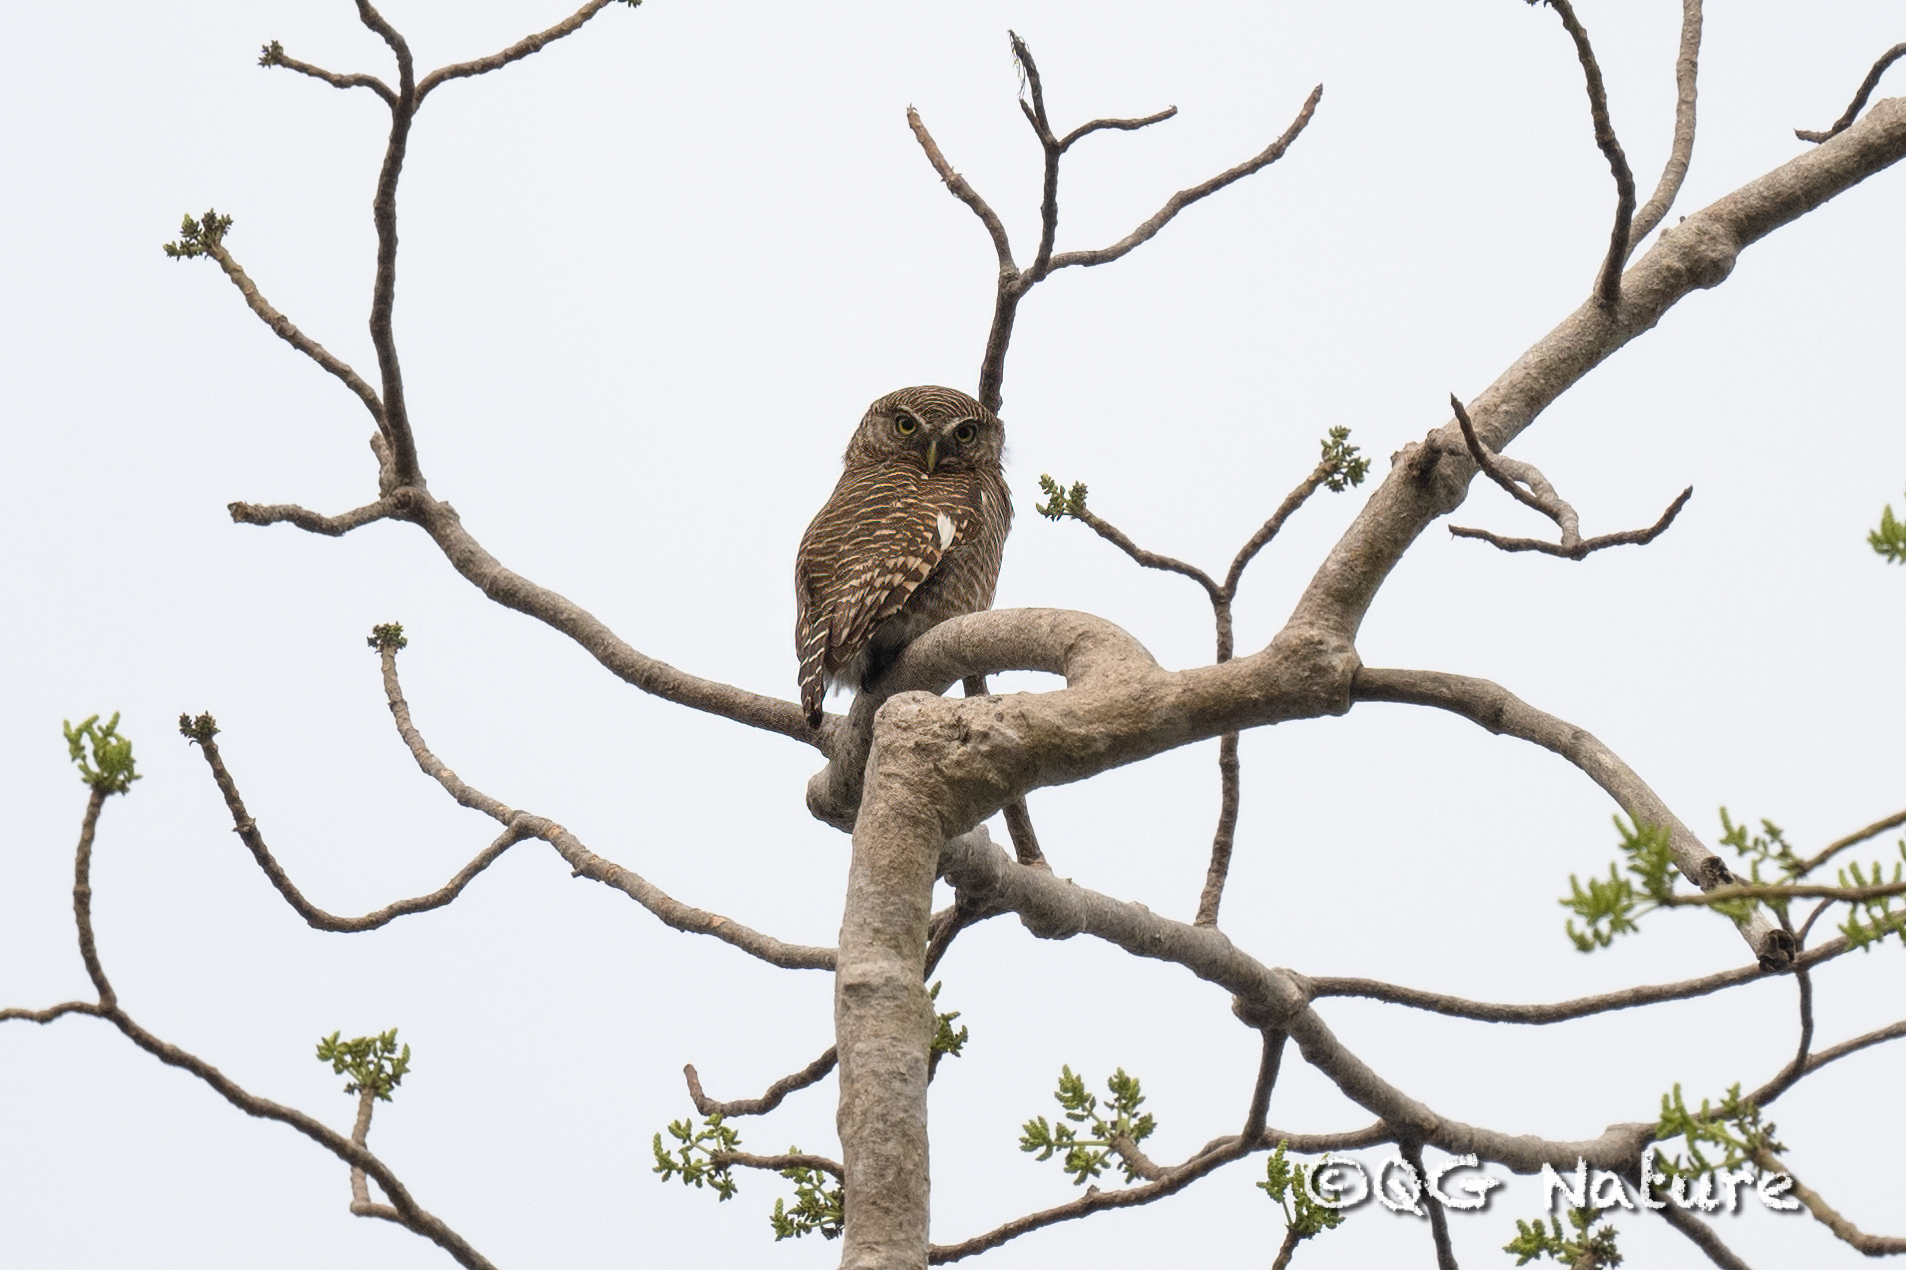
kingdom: Animalia
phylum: Chordata
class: Aves
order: Strigiformes
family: Strigidae
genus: Glaucidium
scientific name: Glaucidium cuculoides
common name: Asian barred owlet
